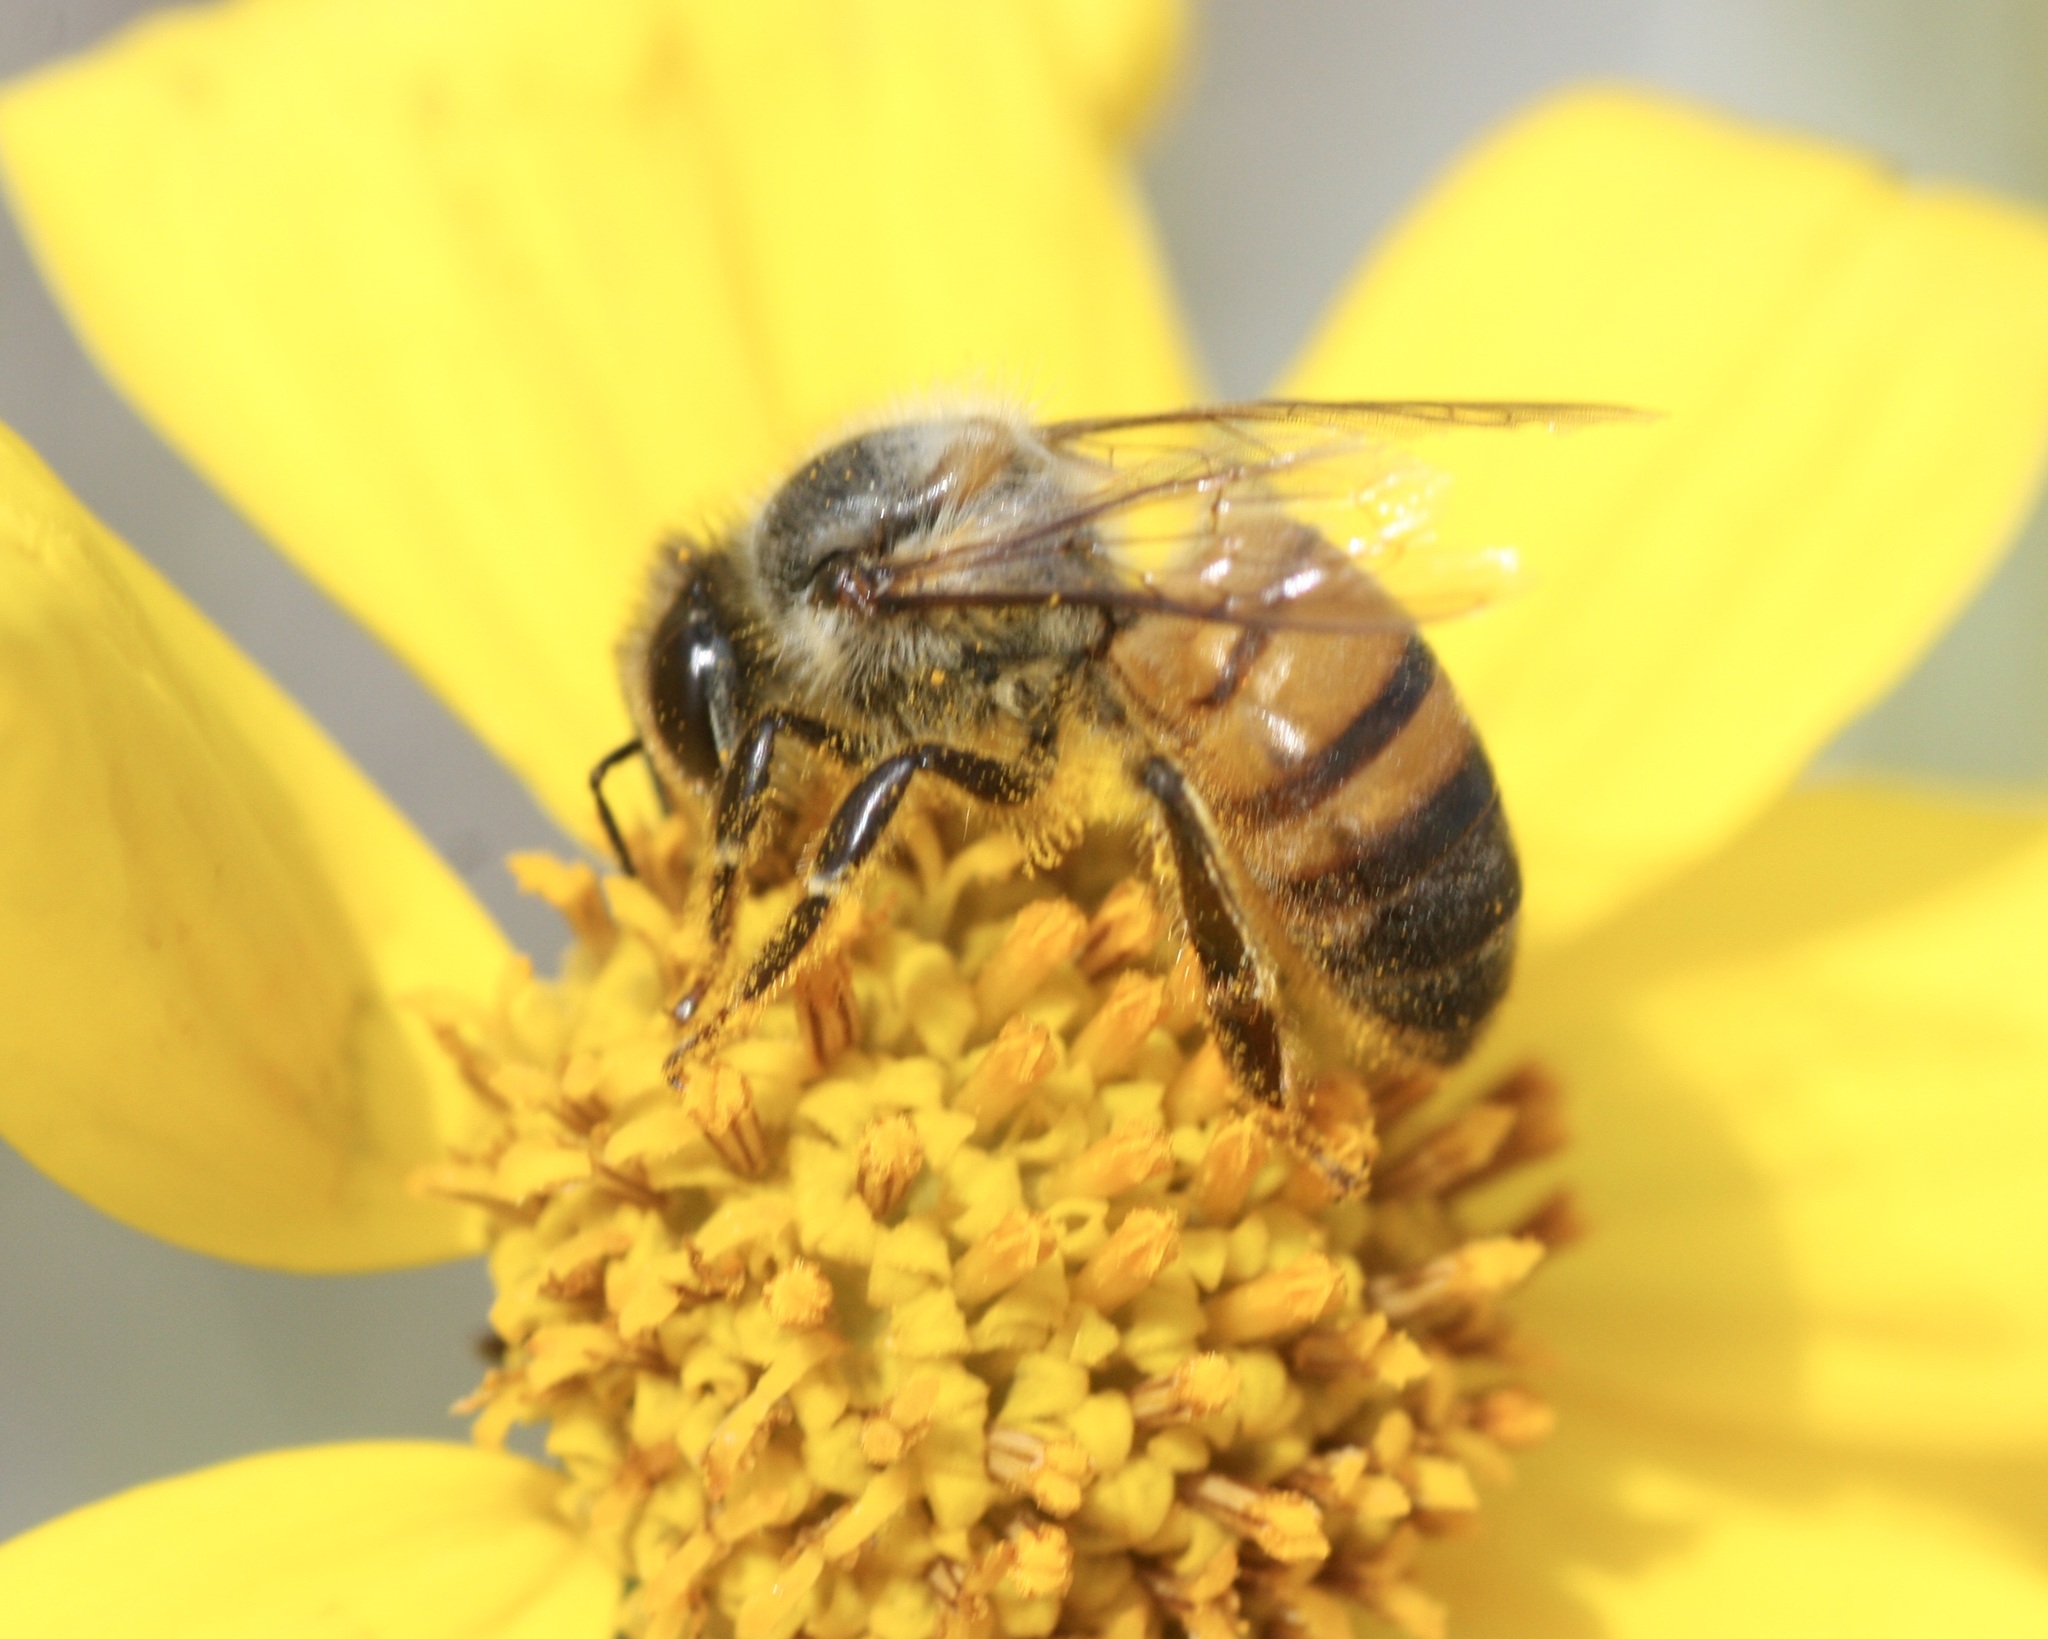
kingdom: Animalia
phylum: Arthropoda
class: Insecta
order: Hymenoptera
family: Apidae
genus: Apis
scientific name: Apis mellifera
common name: Honey bee
